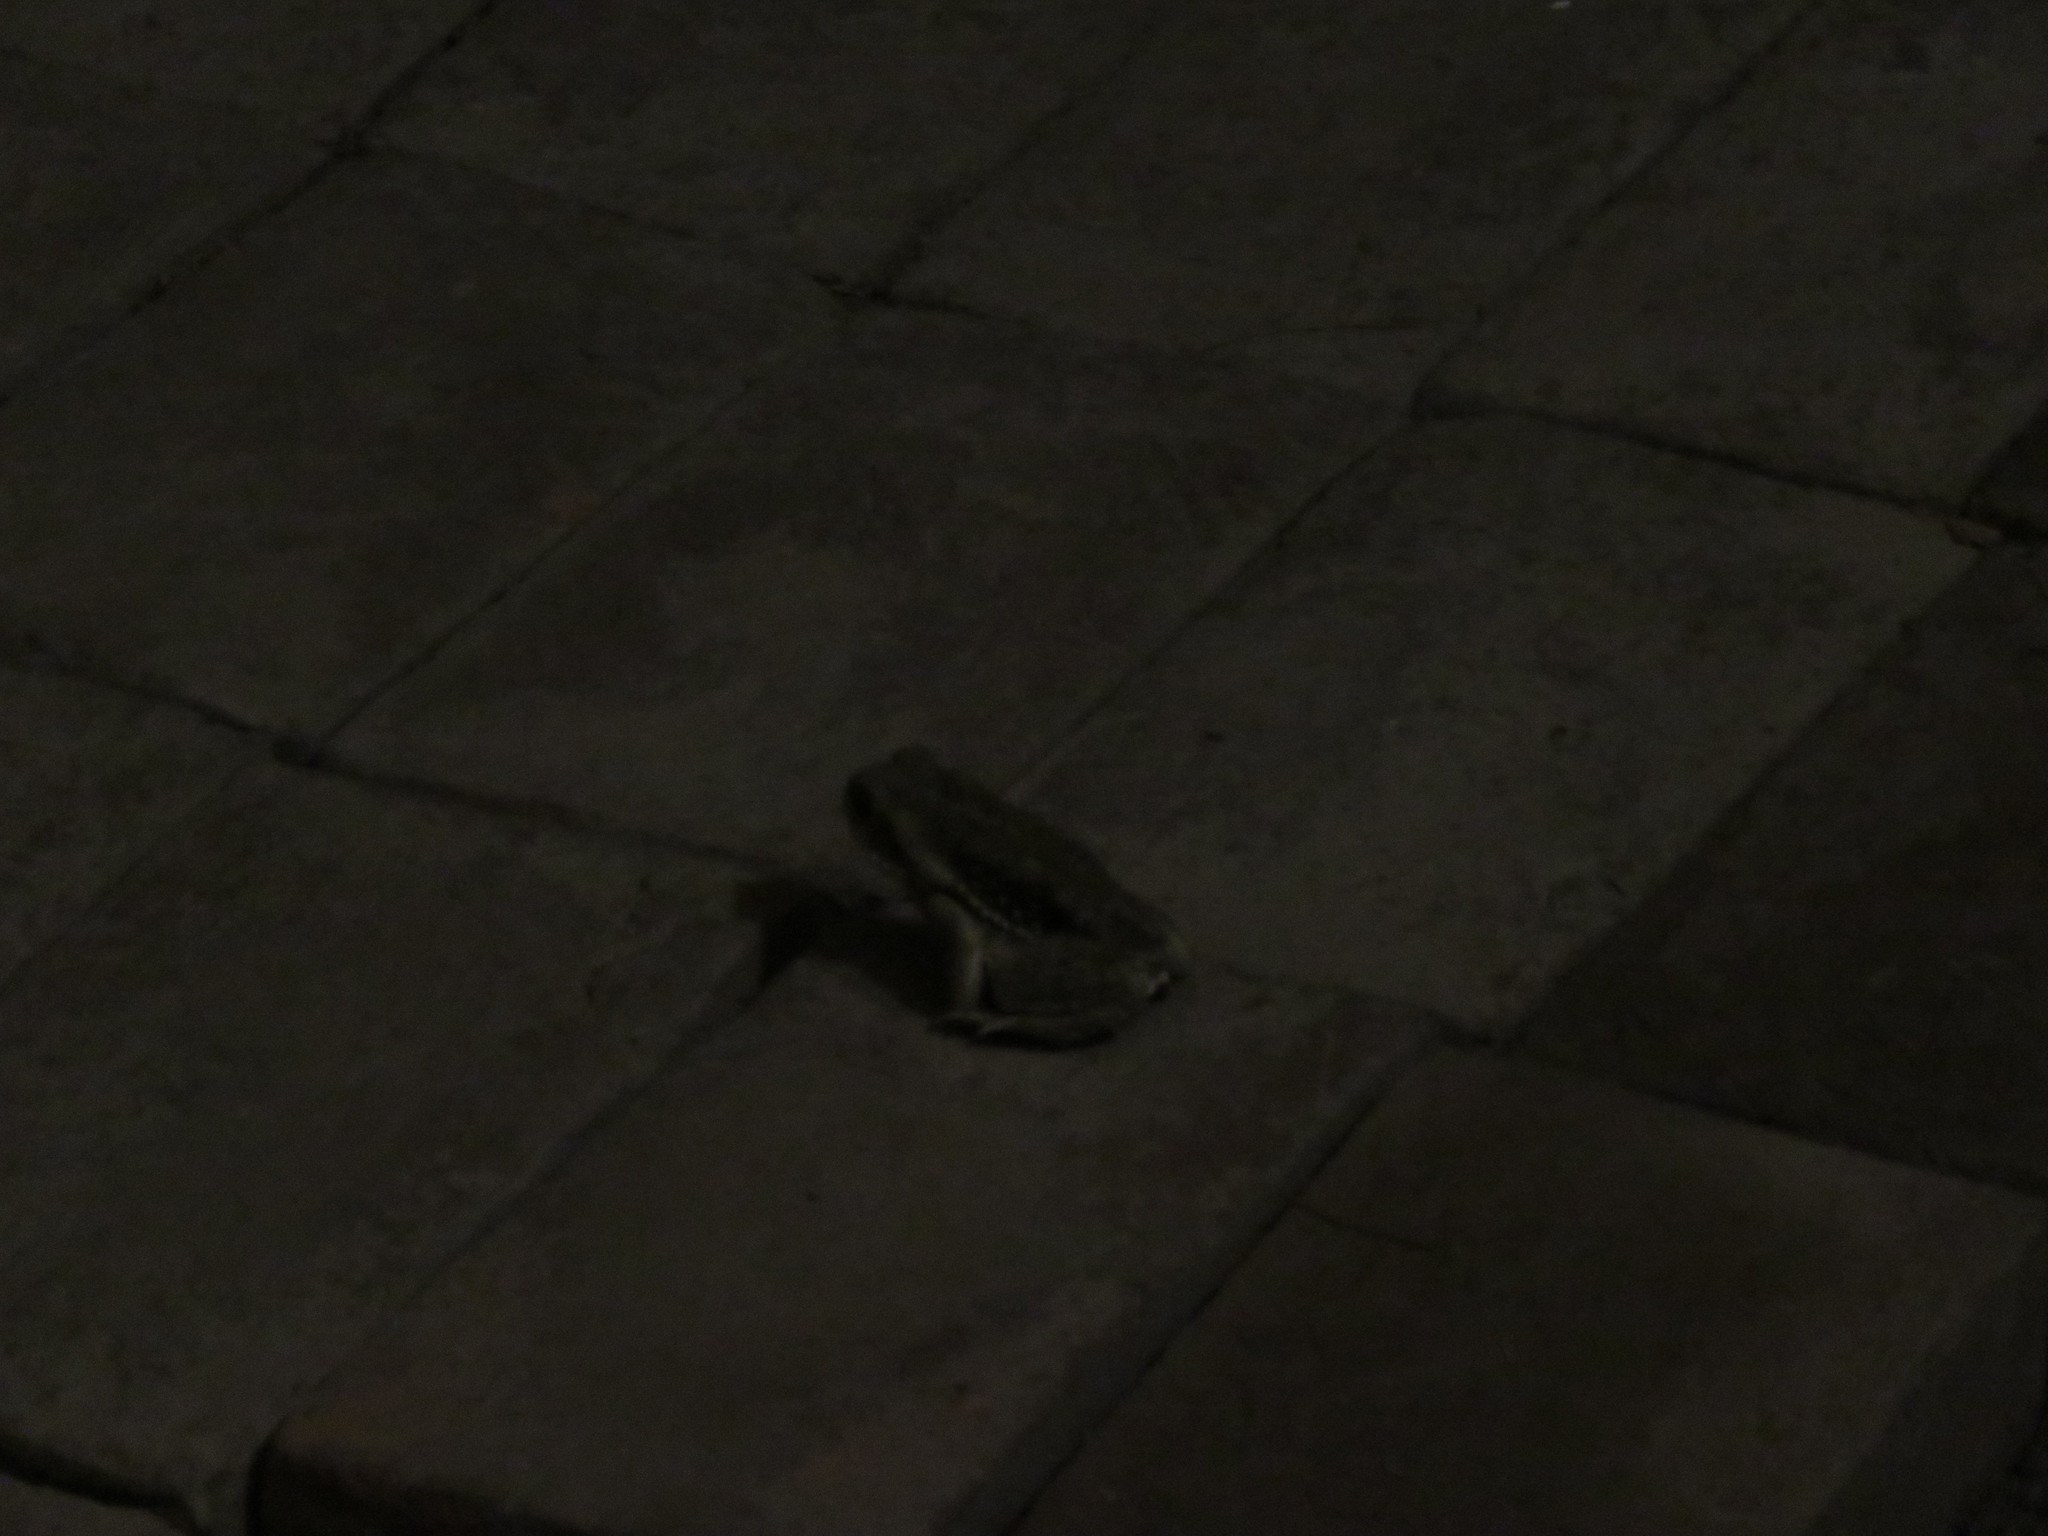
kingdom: Animalia
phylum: Chordata
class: Amphibia
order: Anura
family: Bufonidae
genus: Rhinella
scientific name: Rhinella arenarum
